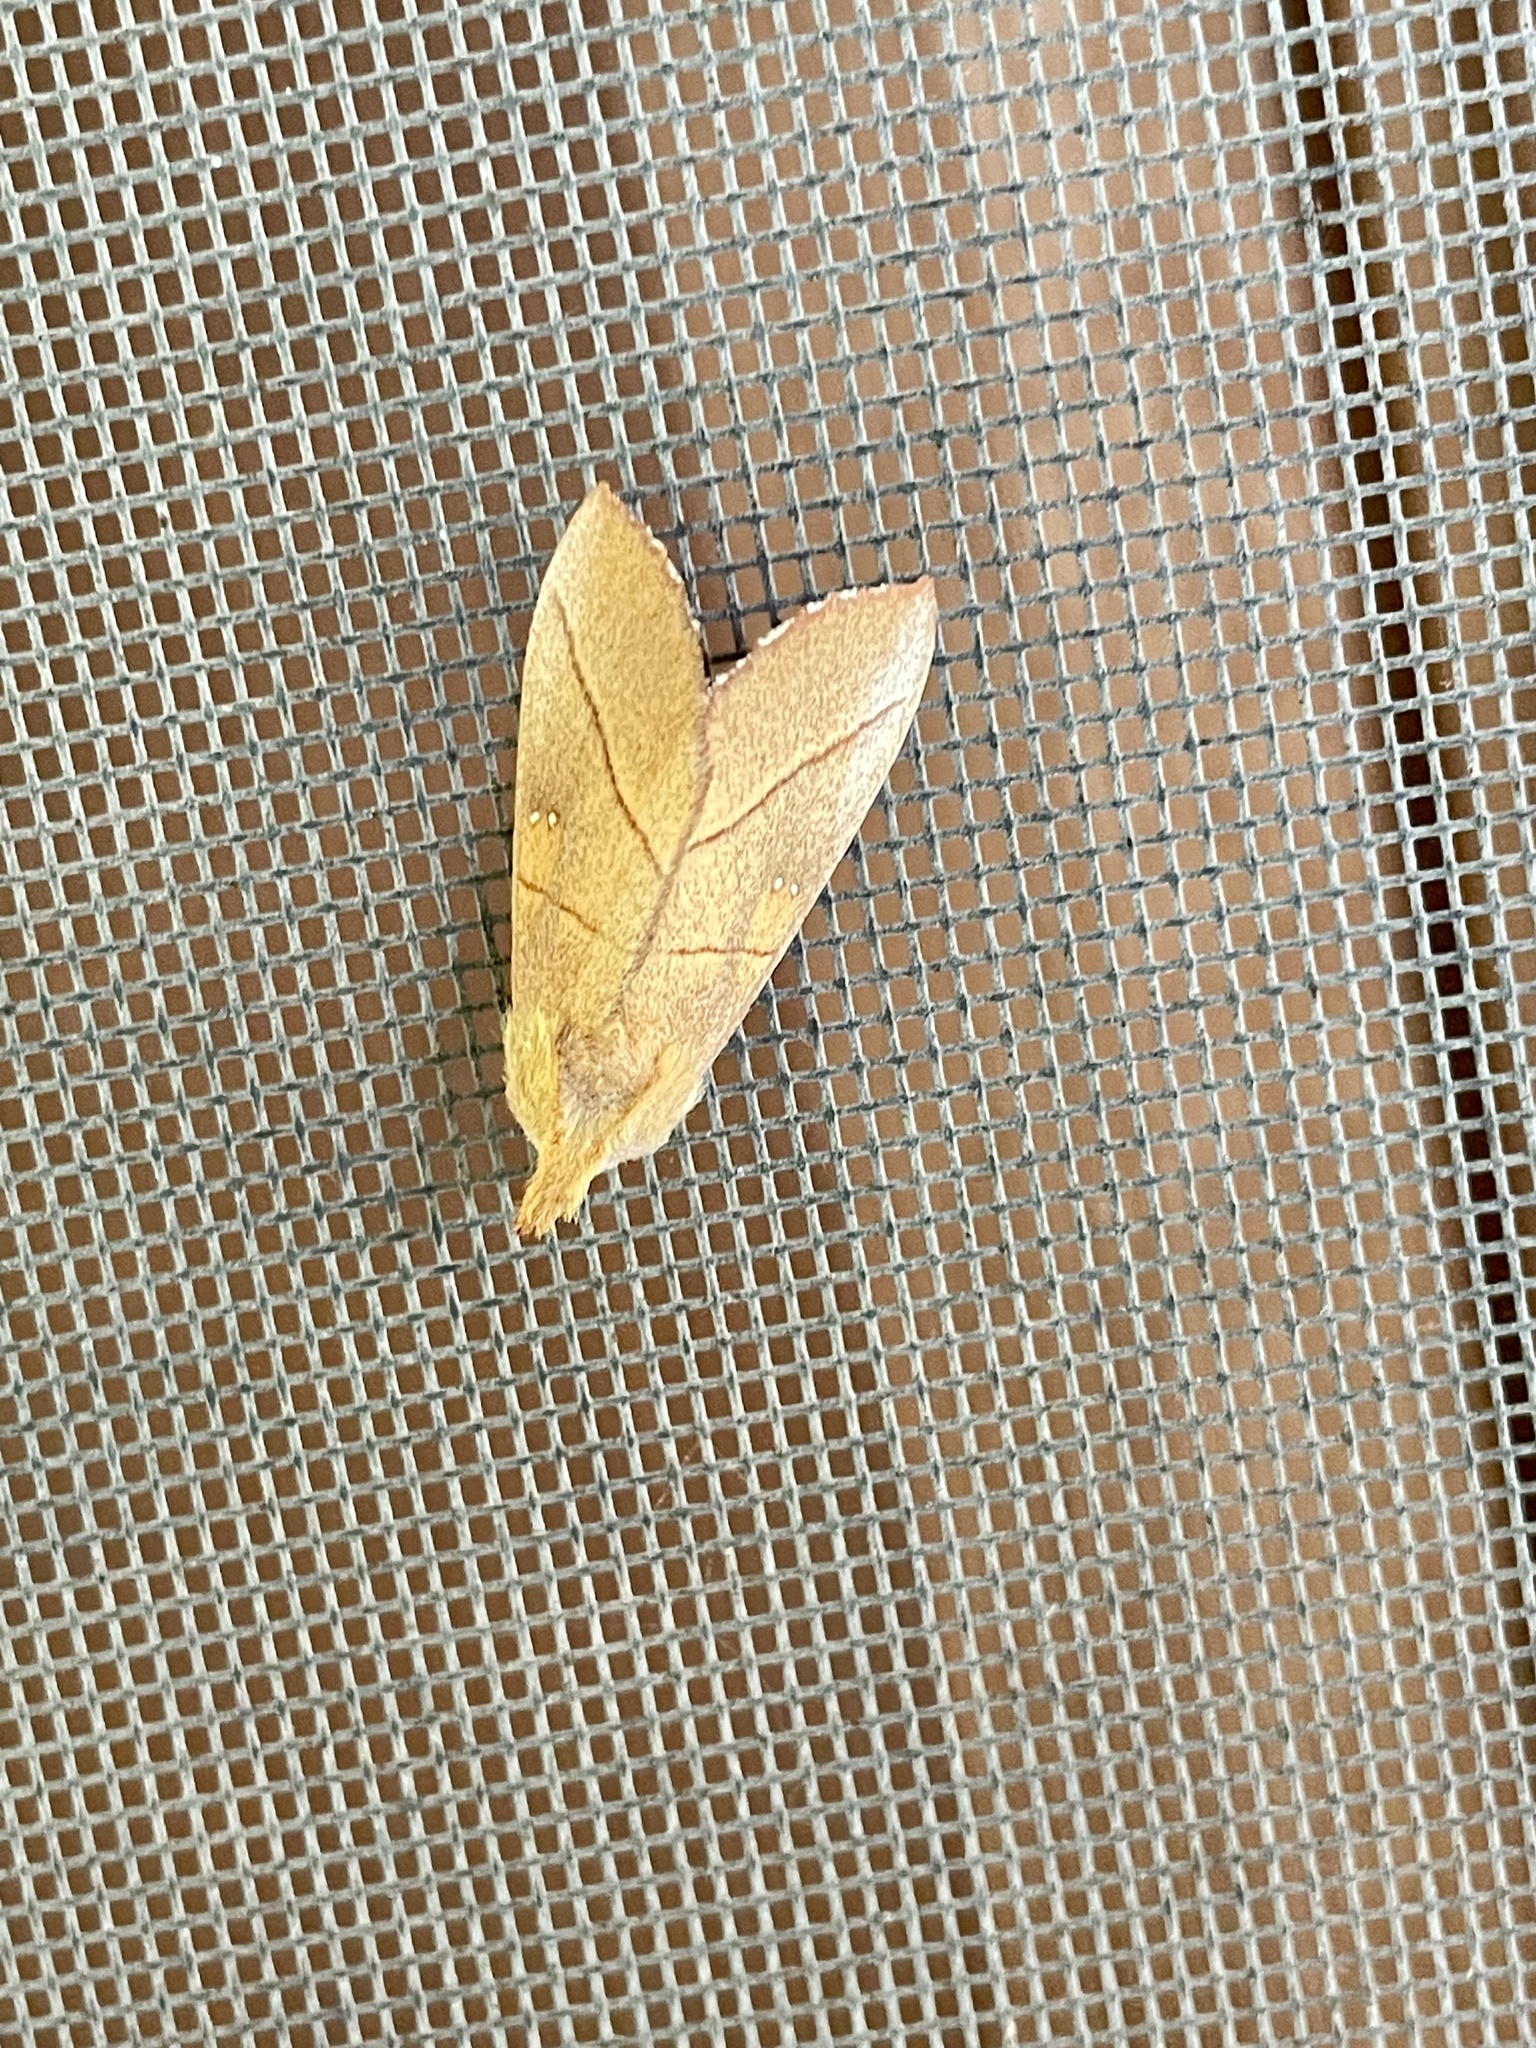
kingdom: Animalia
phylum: Arthropoda
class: Insecta
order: Lepidoptera
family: Notodontidae
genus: Nadata
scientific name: Nadata gibbosa
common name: White-dotted prominent
